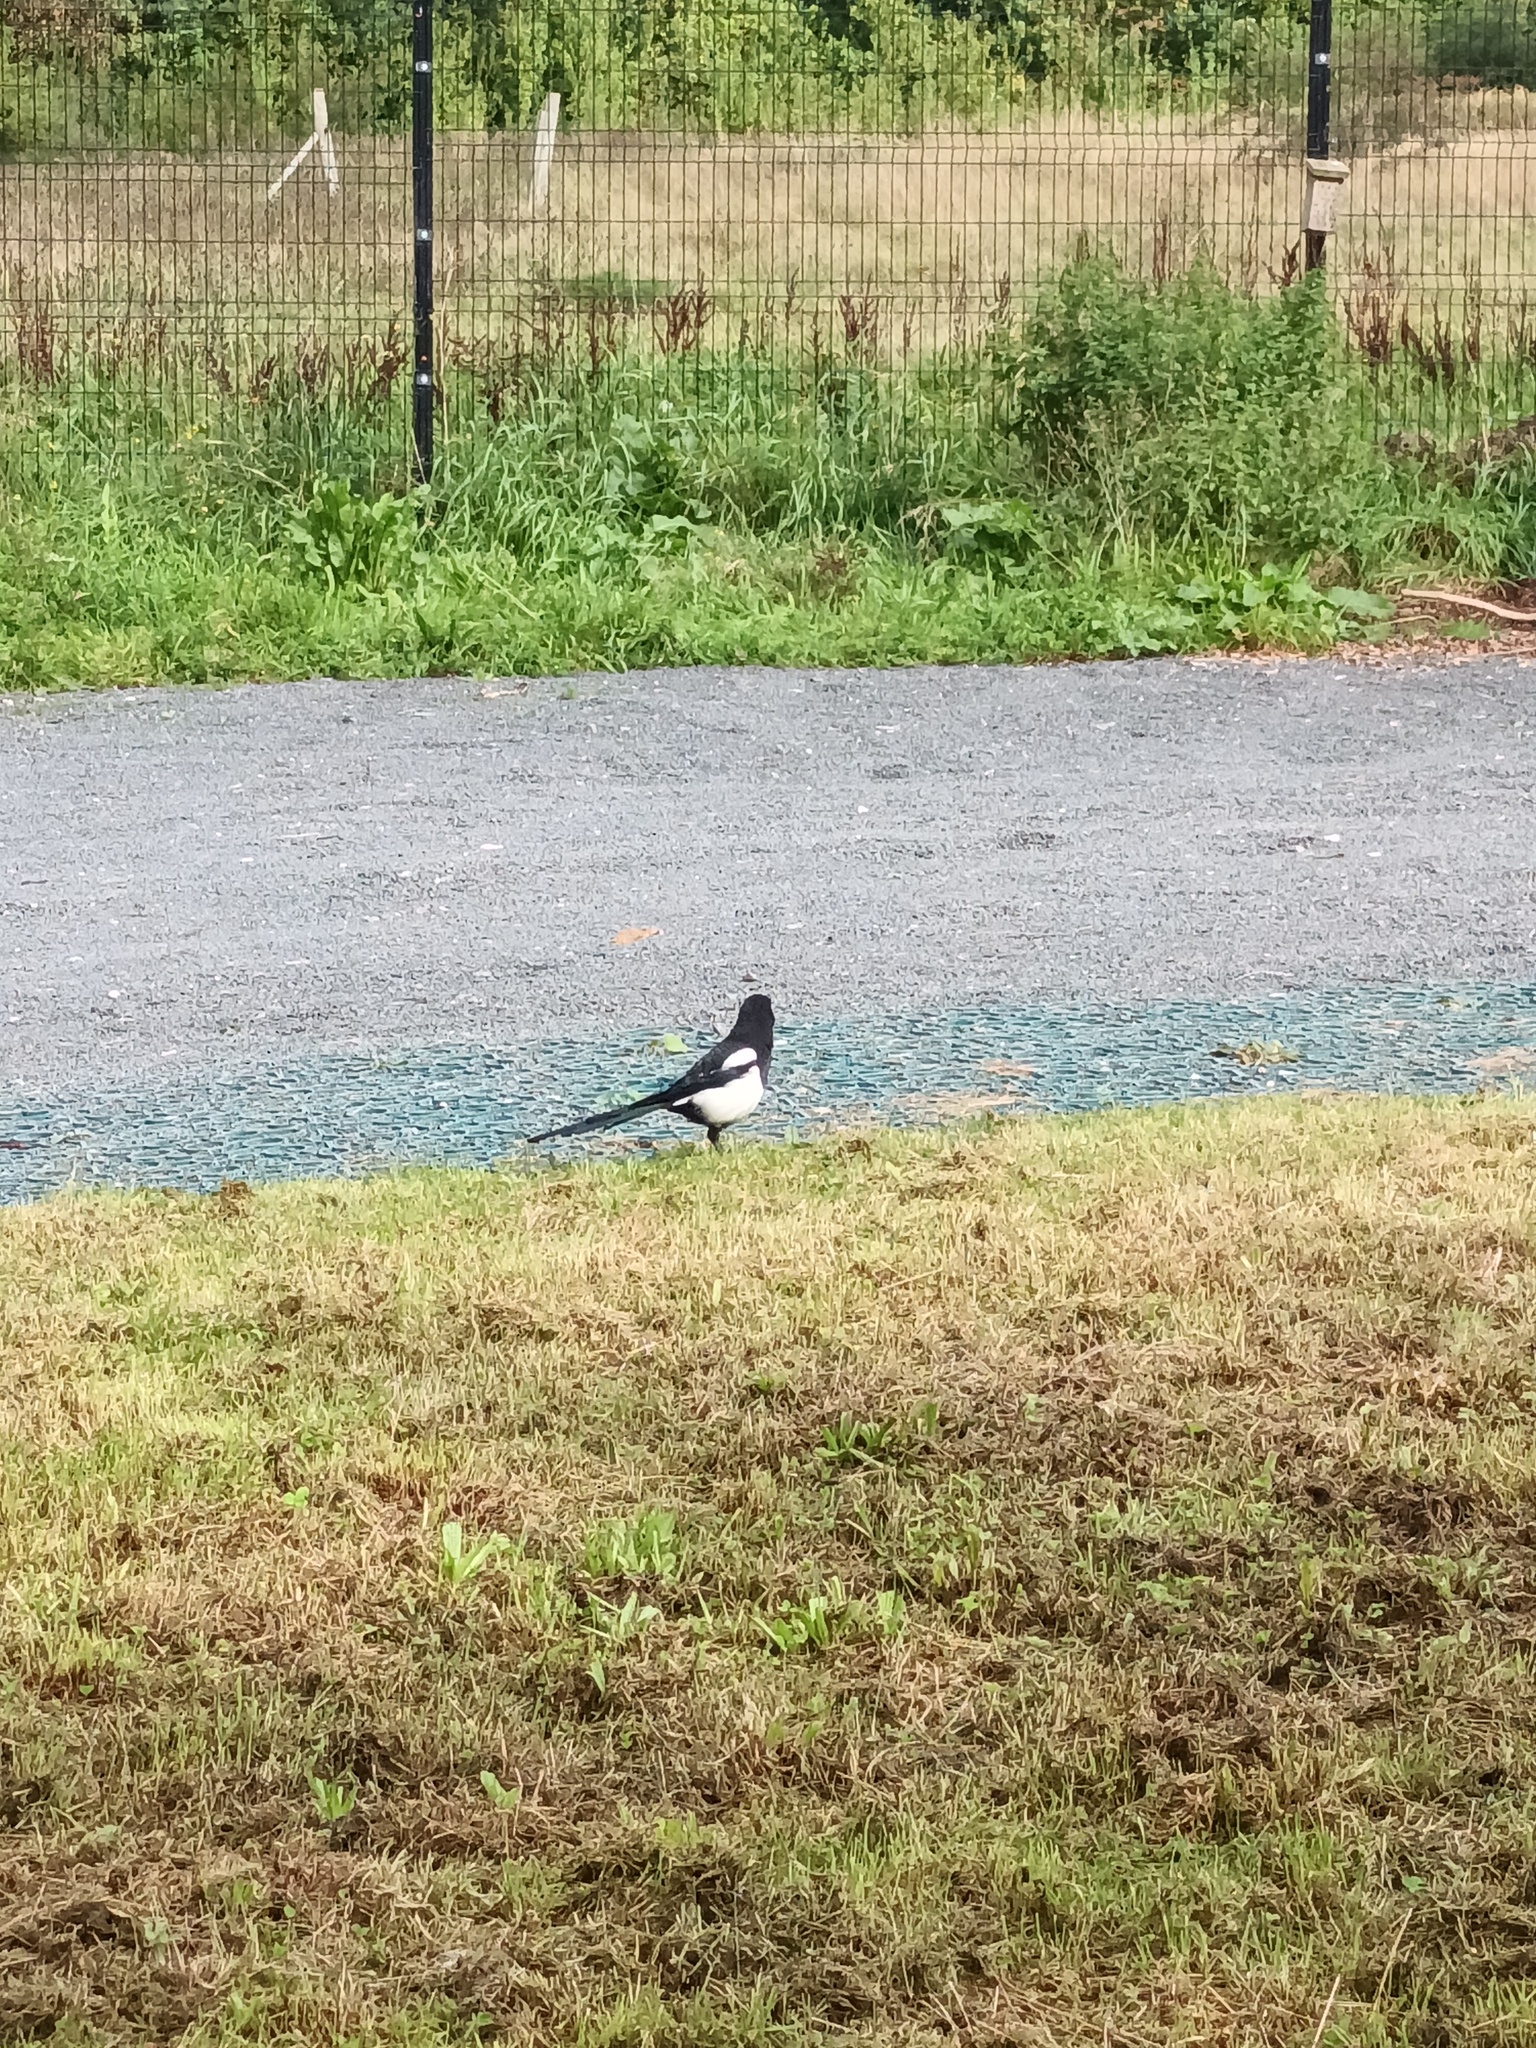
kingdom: Animalia
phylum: Chordata
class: Aves
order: Passeriformes
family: Corvidae
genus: Pica
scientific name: Pica pica
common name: Eurasian magpie
